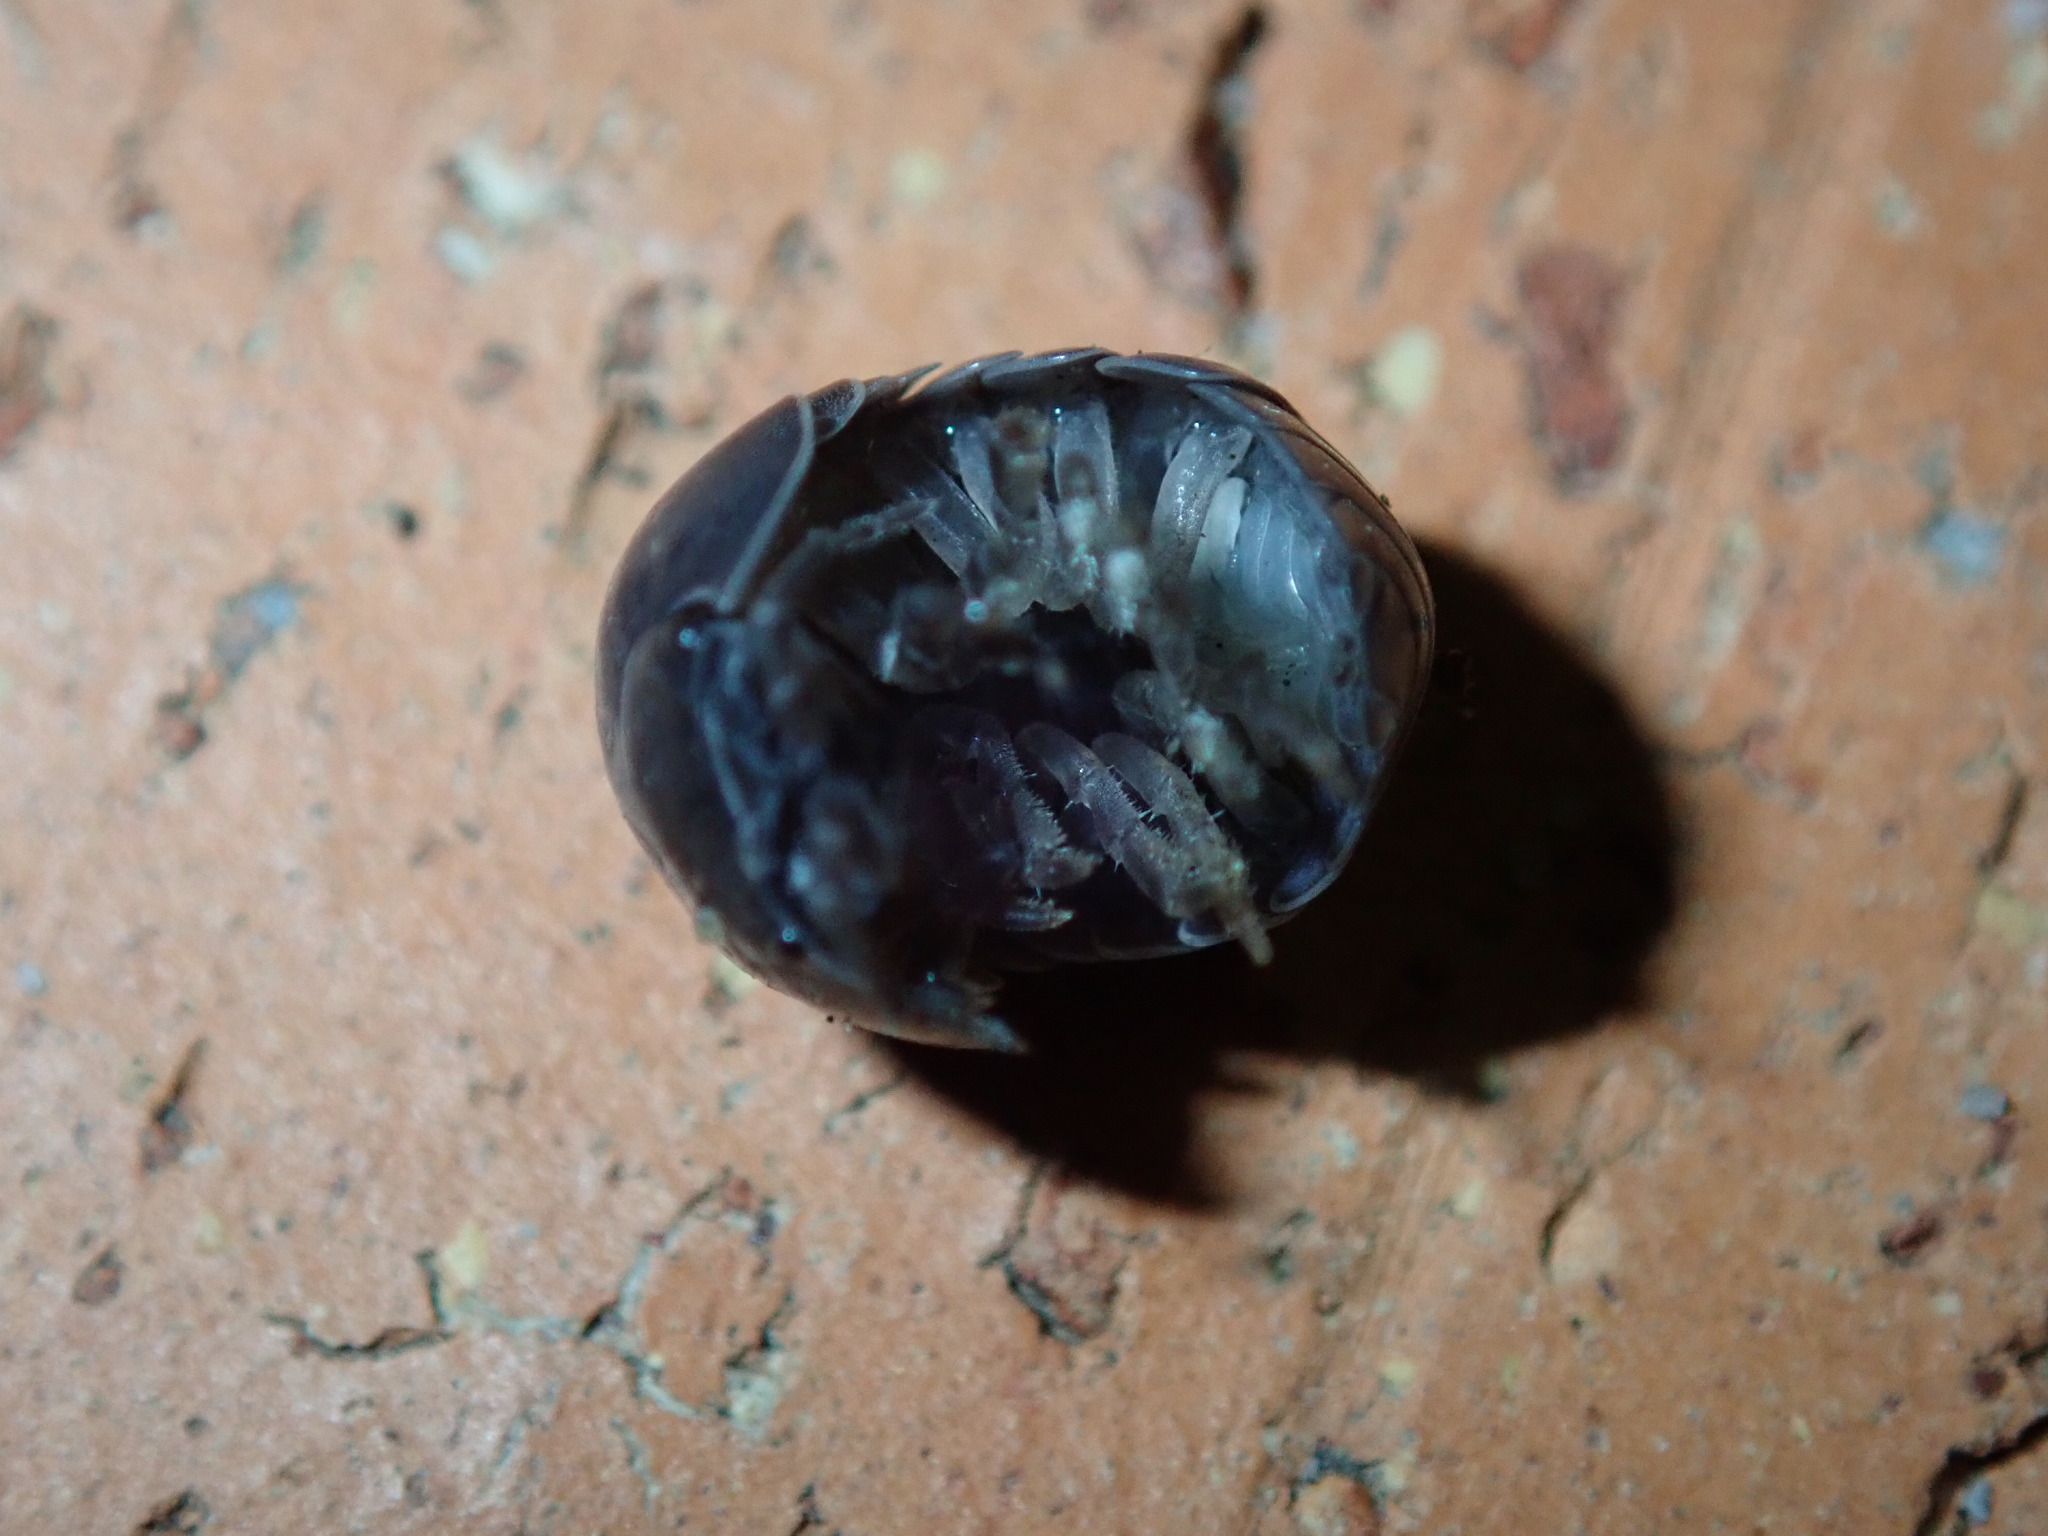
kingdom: Animalia
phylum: Arthropoda
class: Malacostraca
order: Isopoda
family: Armadillidiidae
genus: Armadillidium
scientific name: Armadillidium vulgare
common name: Common pill woodlouse
